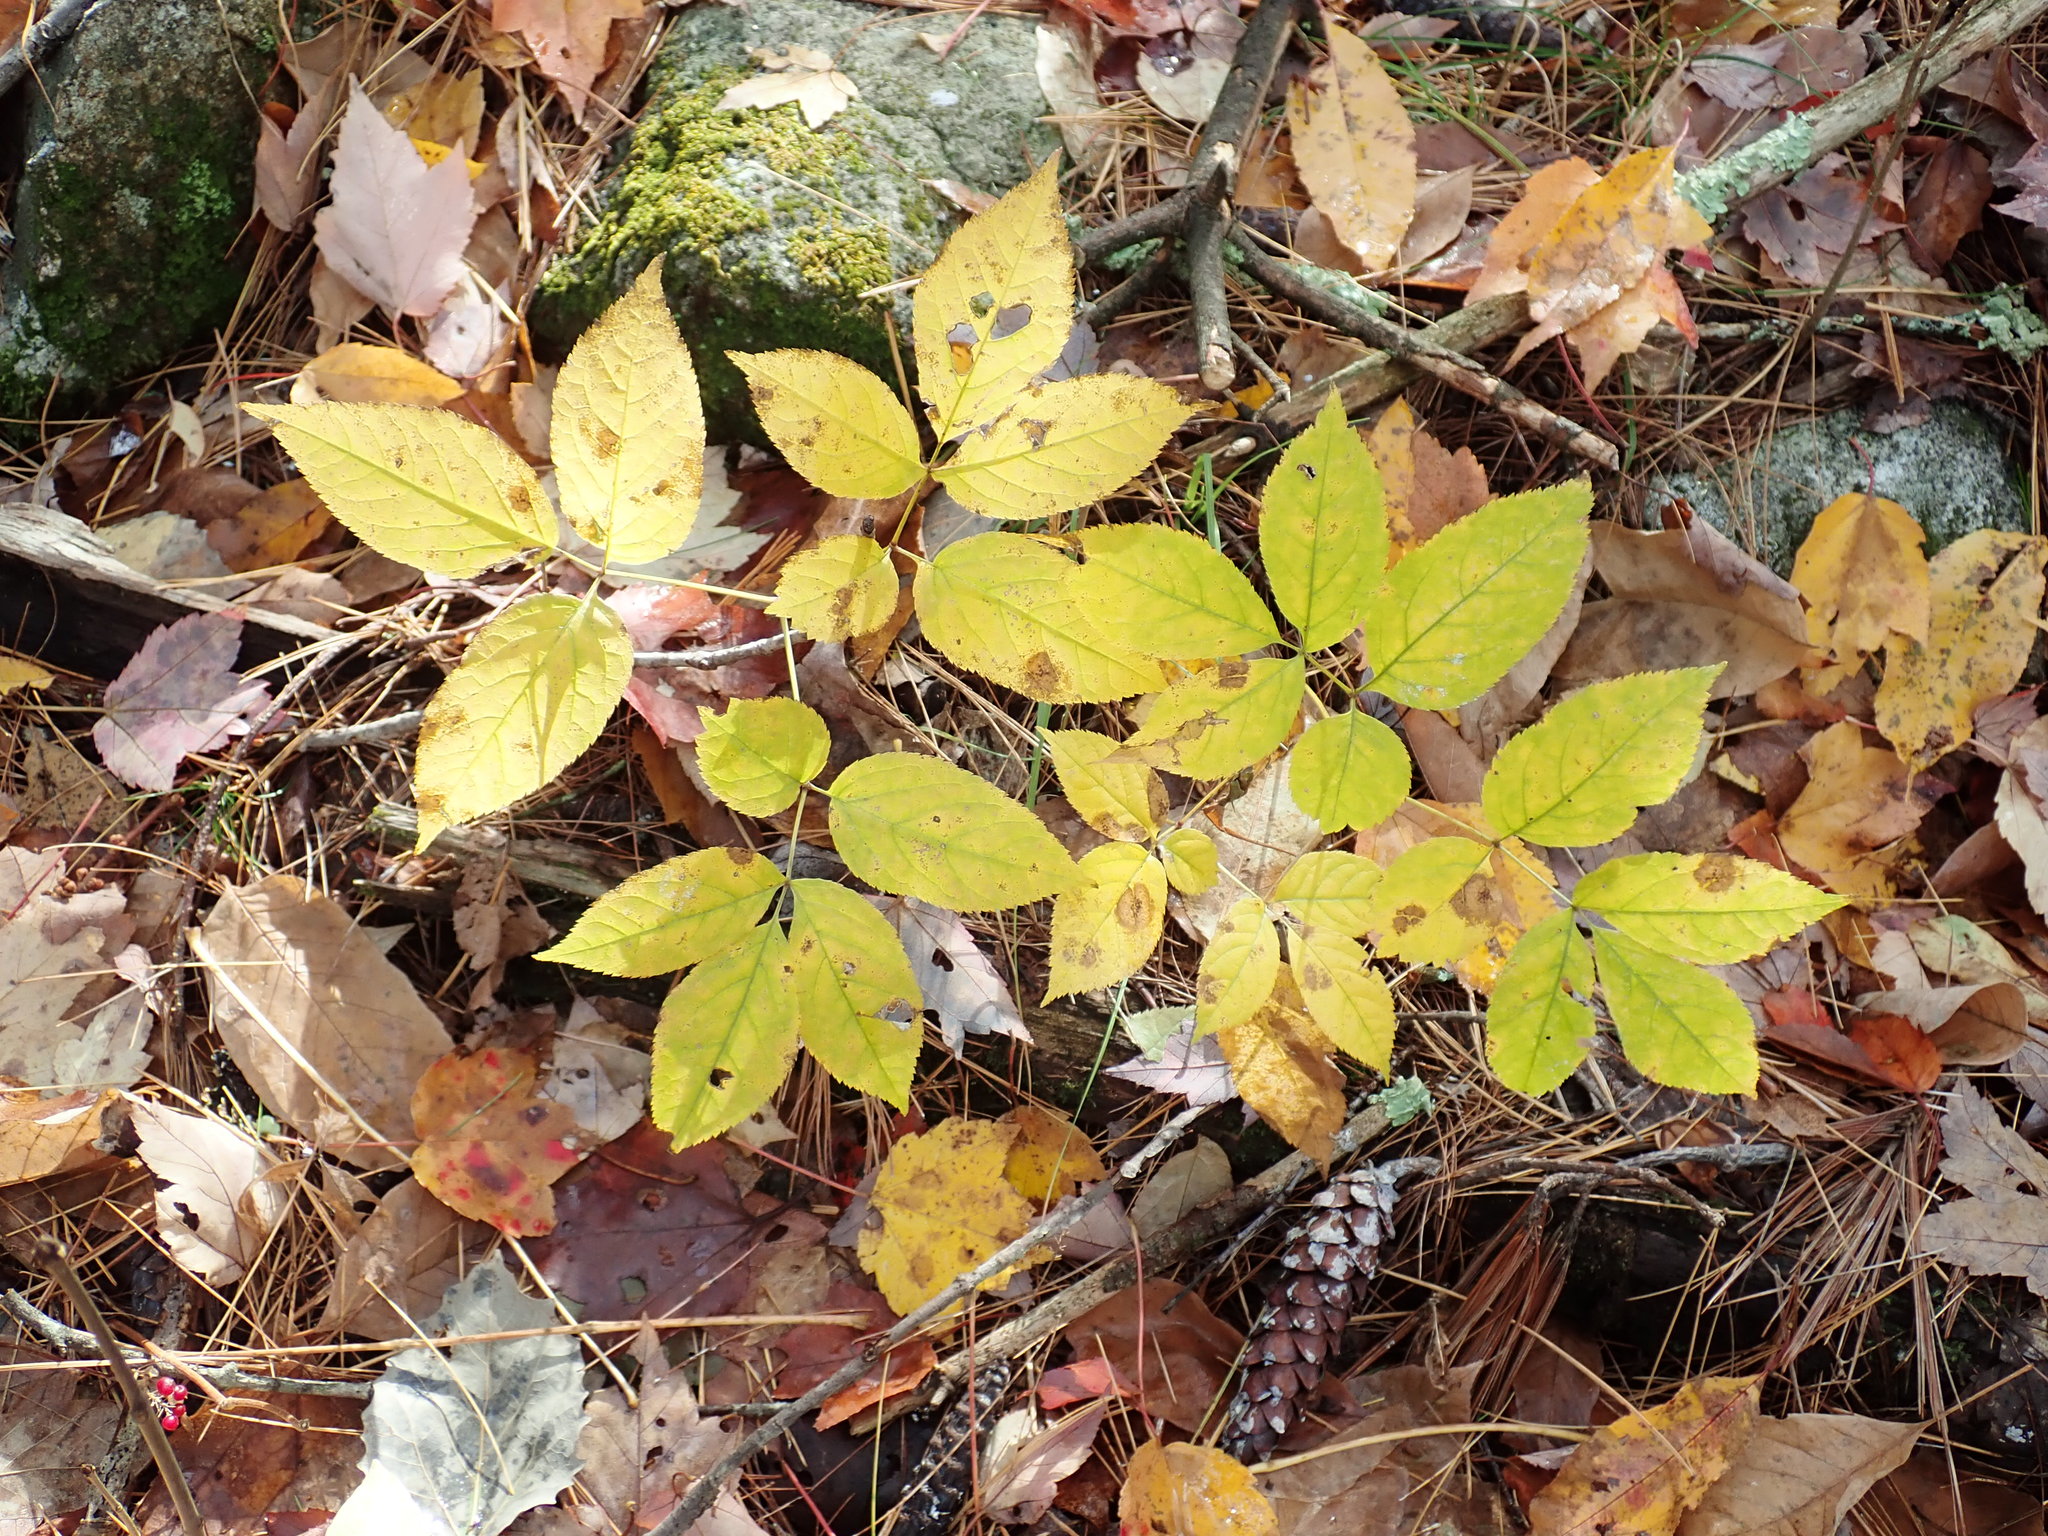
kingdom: Plantae
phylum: Tracheophyta
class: Magnoliopsida
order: Apiales
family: Araliaceae
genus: Aralia
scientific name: Aralia nudicaulis
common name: Wild sarsaparilla
